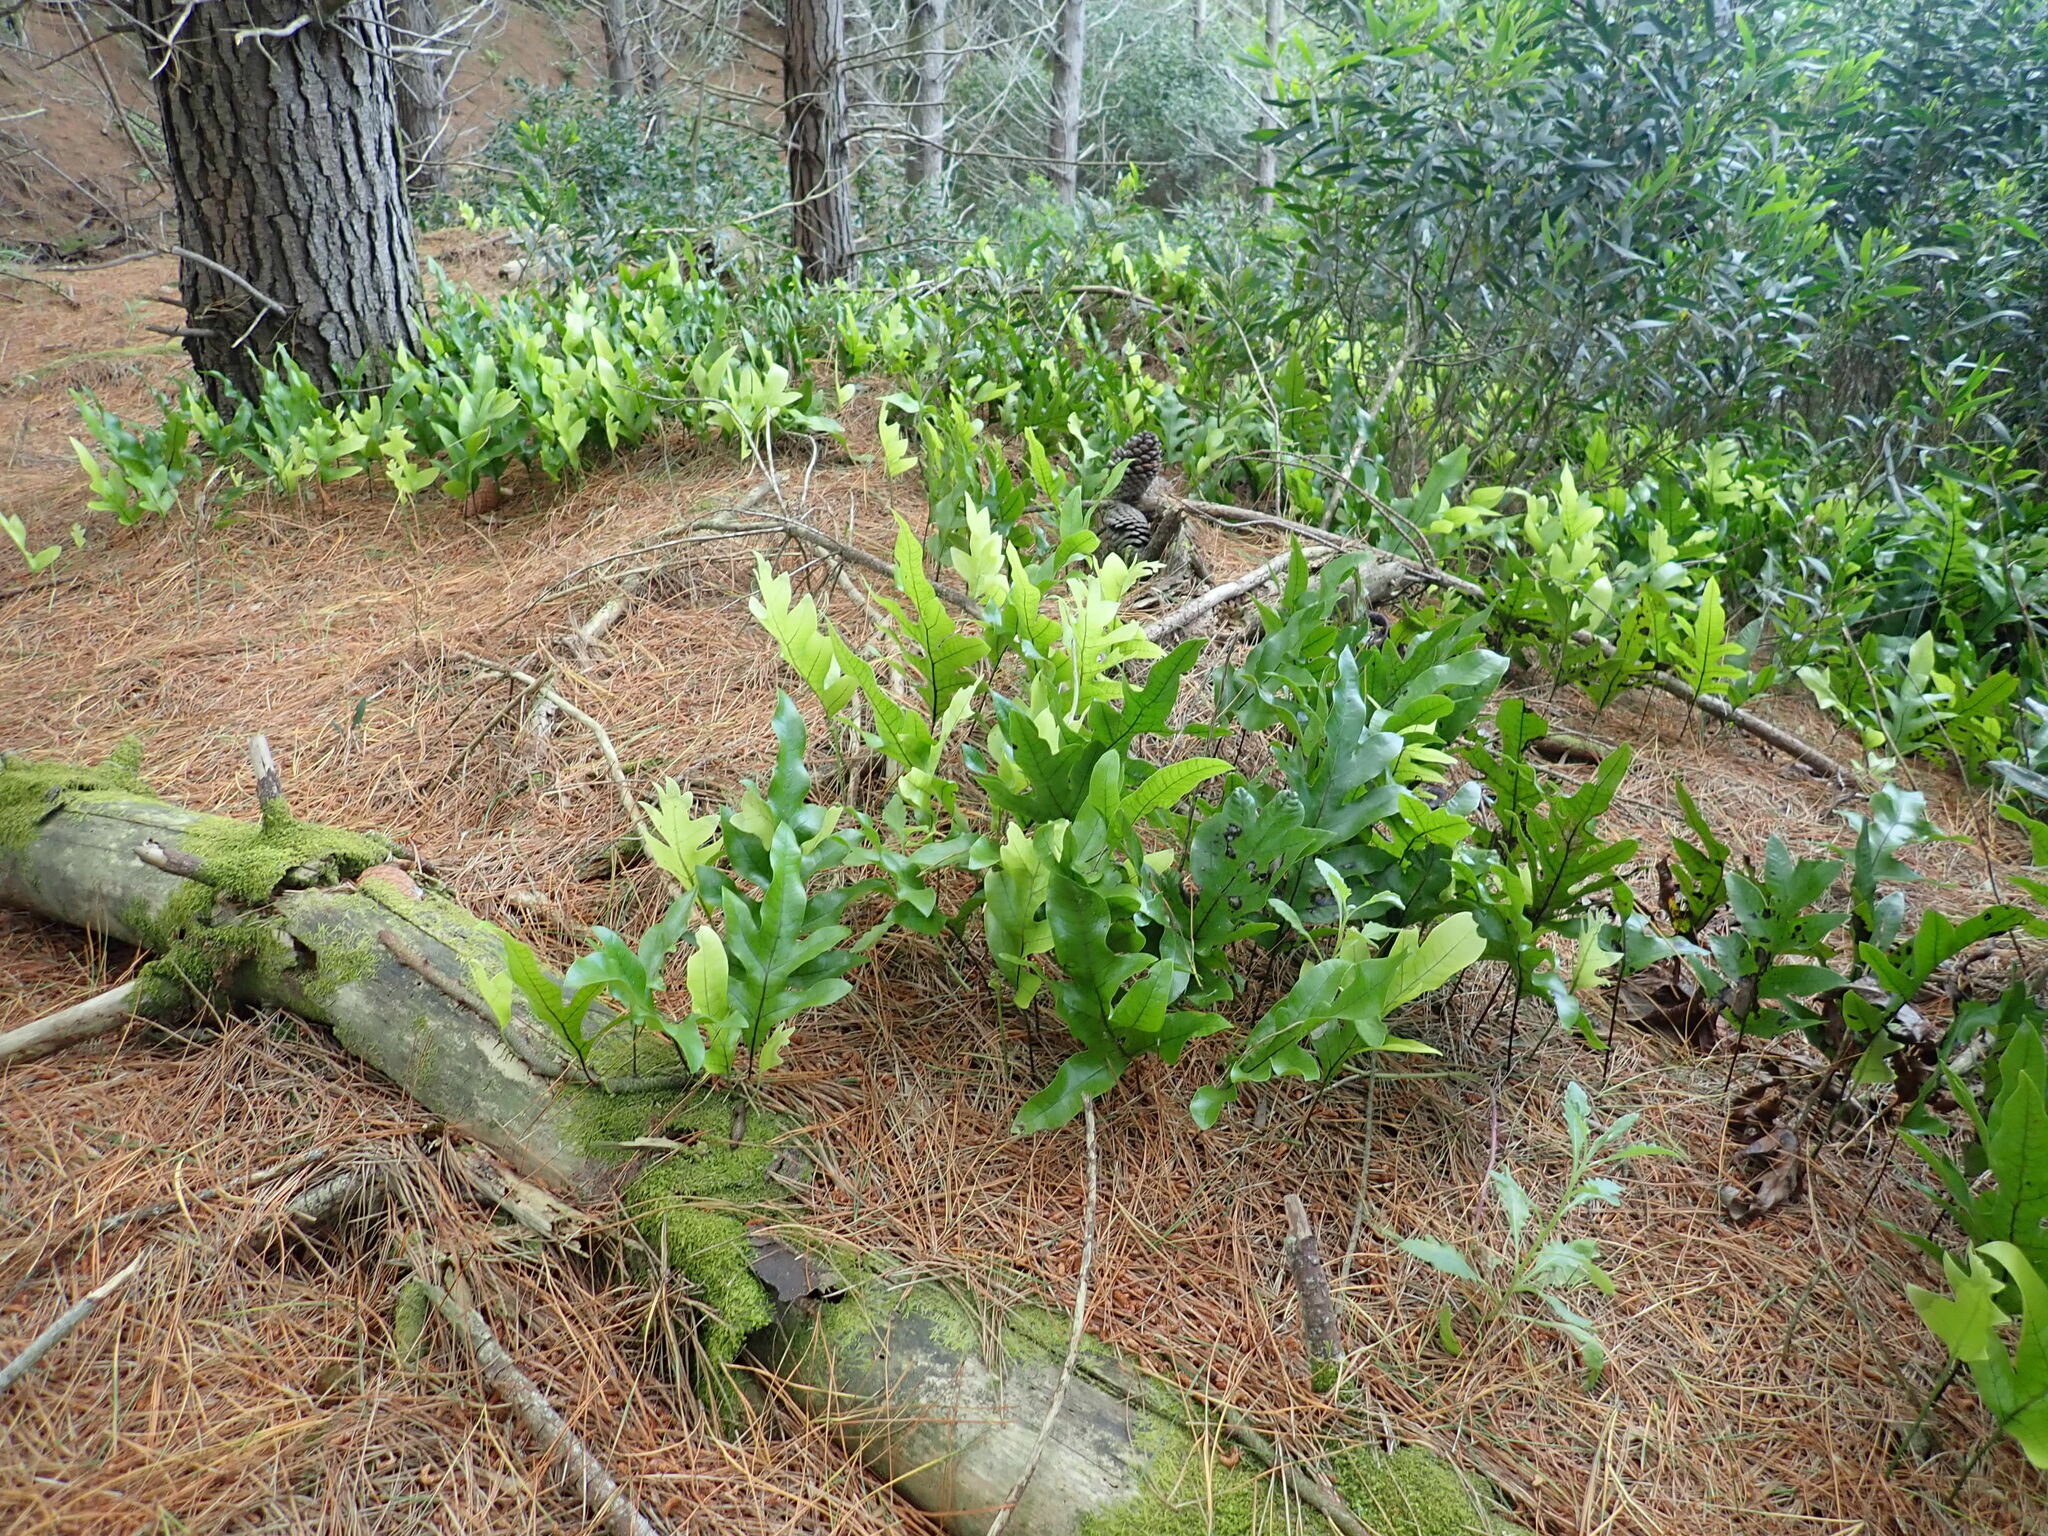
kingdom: Plantae
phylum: Tracheophyta
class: Polypodiopsida
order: Polypodiales
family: Polypodiaceae
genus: Lecanopteris
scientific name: Lecanopteris pustulata
